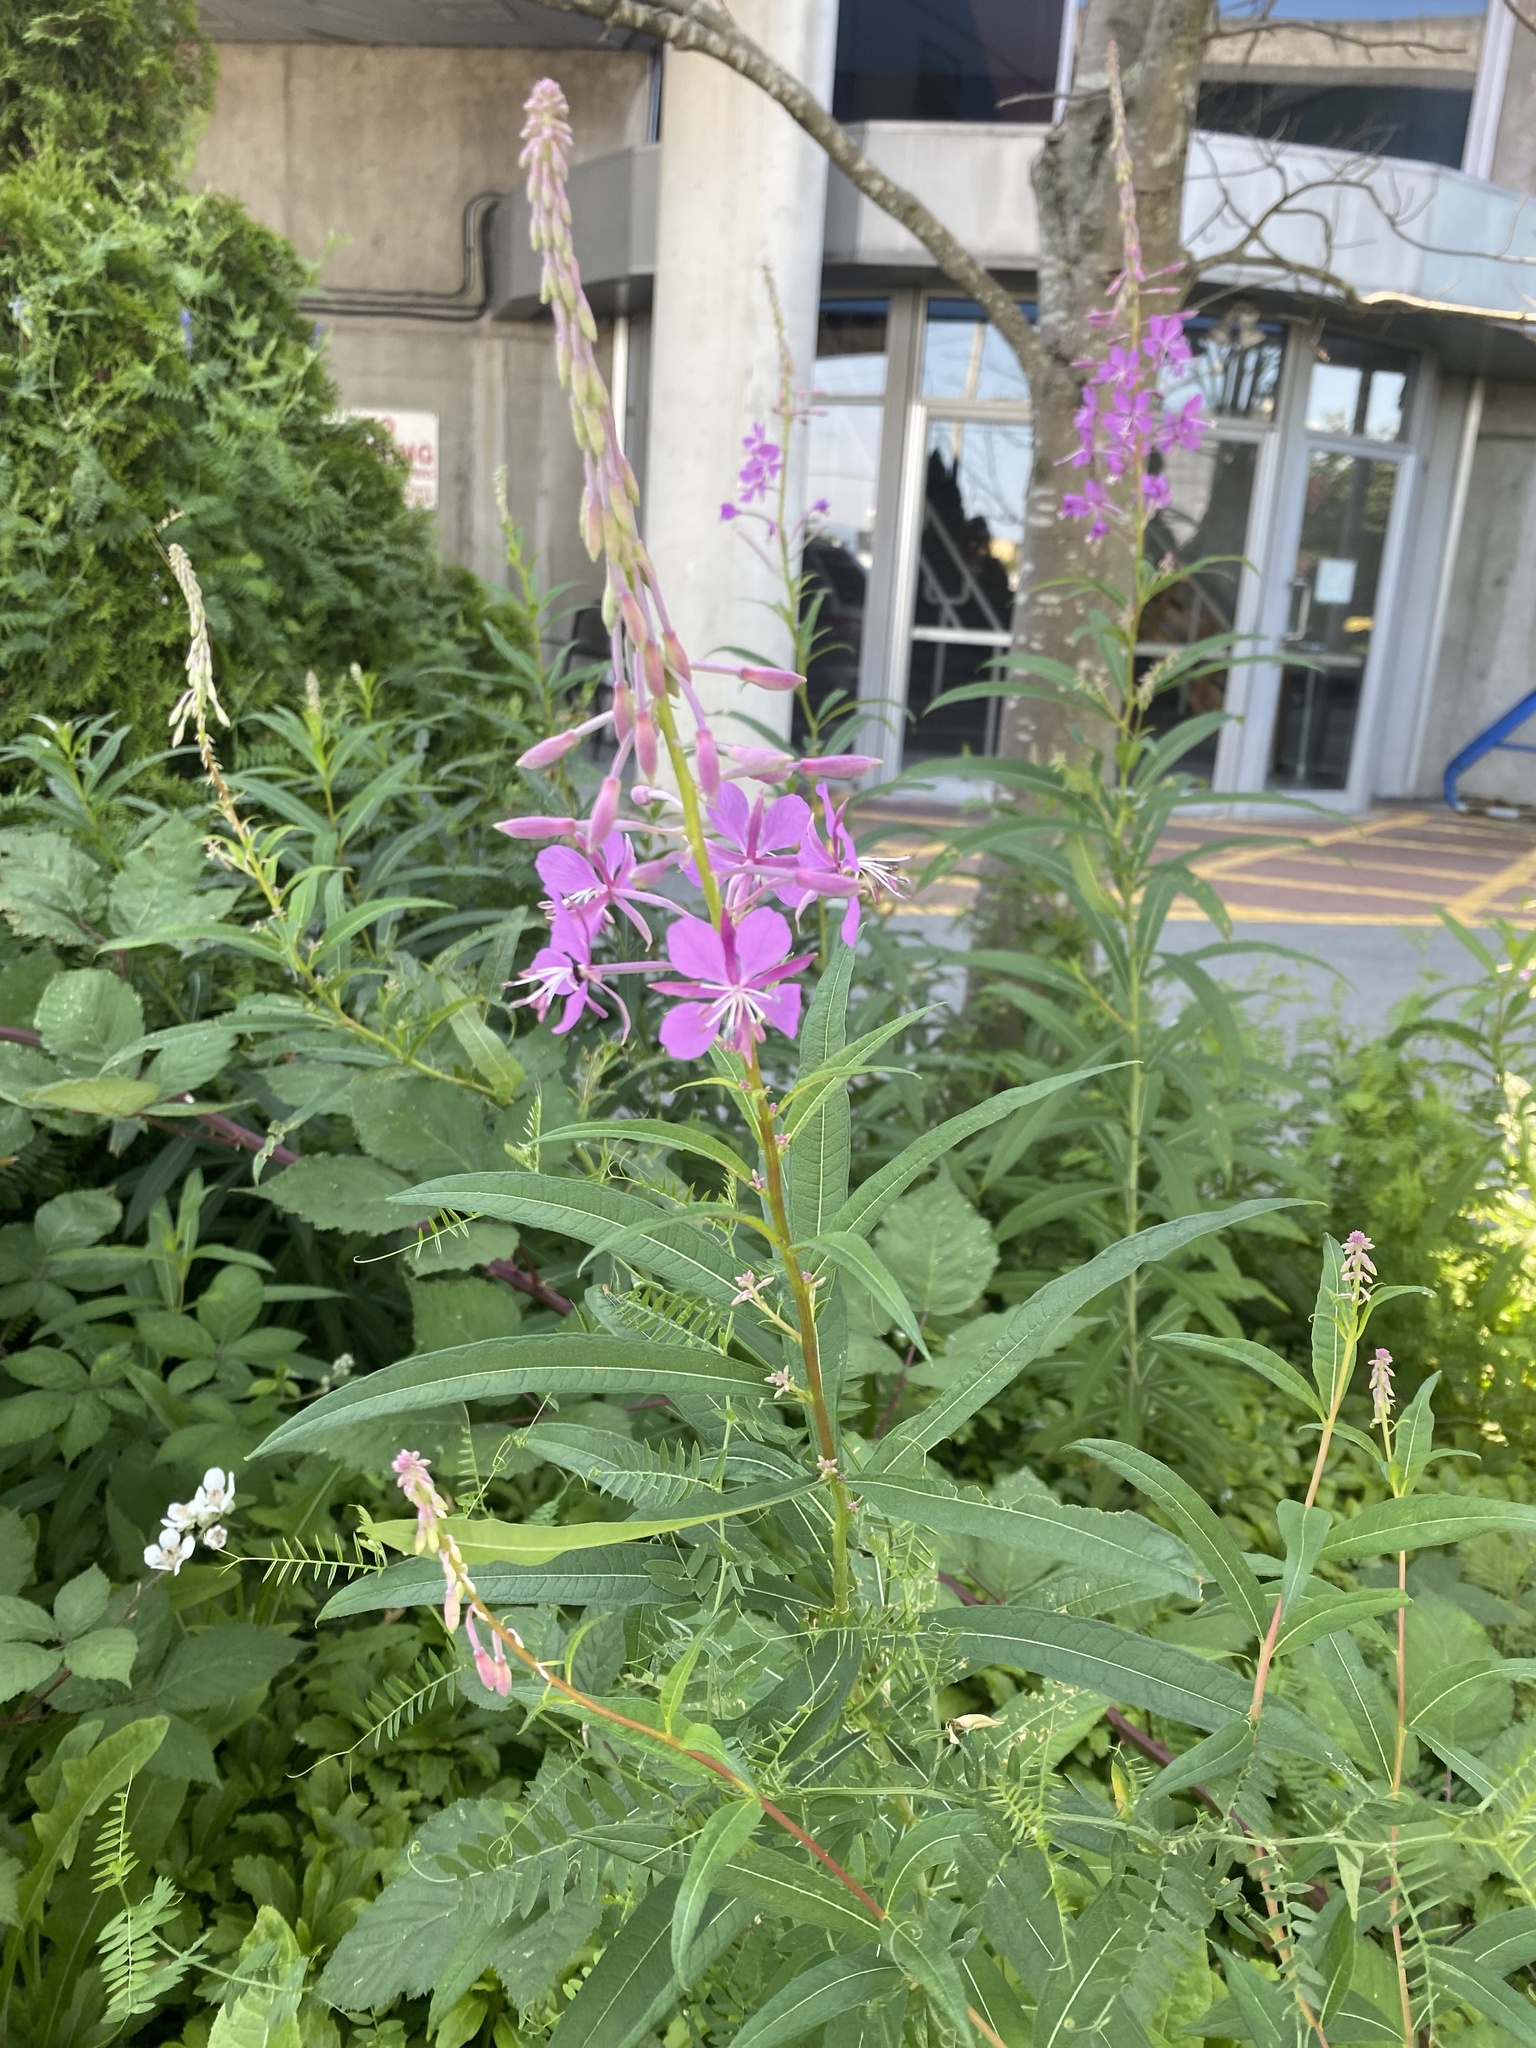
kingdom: Plantae
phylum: Tracheophyta
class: Magnoliopsida
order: Myrtales
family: Onagraceae
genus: Chamaenerion
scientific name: Chamaenerion angustifolium
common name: Fireweed
